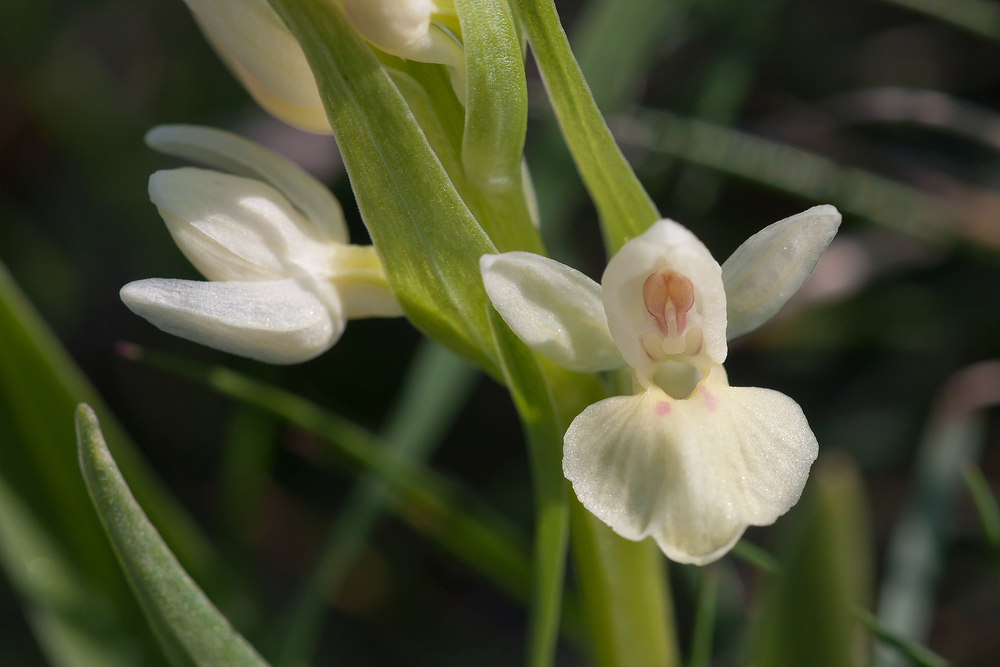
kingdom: Plantae
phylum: Tracheophyta
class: Liliopsida
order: Asparagales
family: Orchidaceae
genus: Dactylorhiza
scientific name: Dactylorhiza insularis
